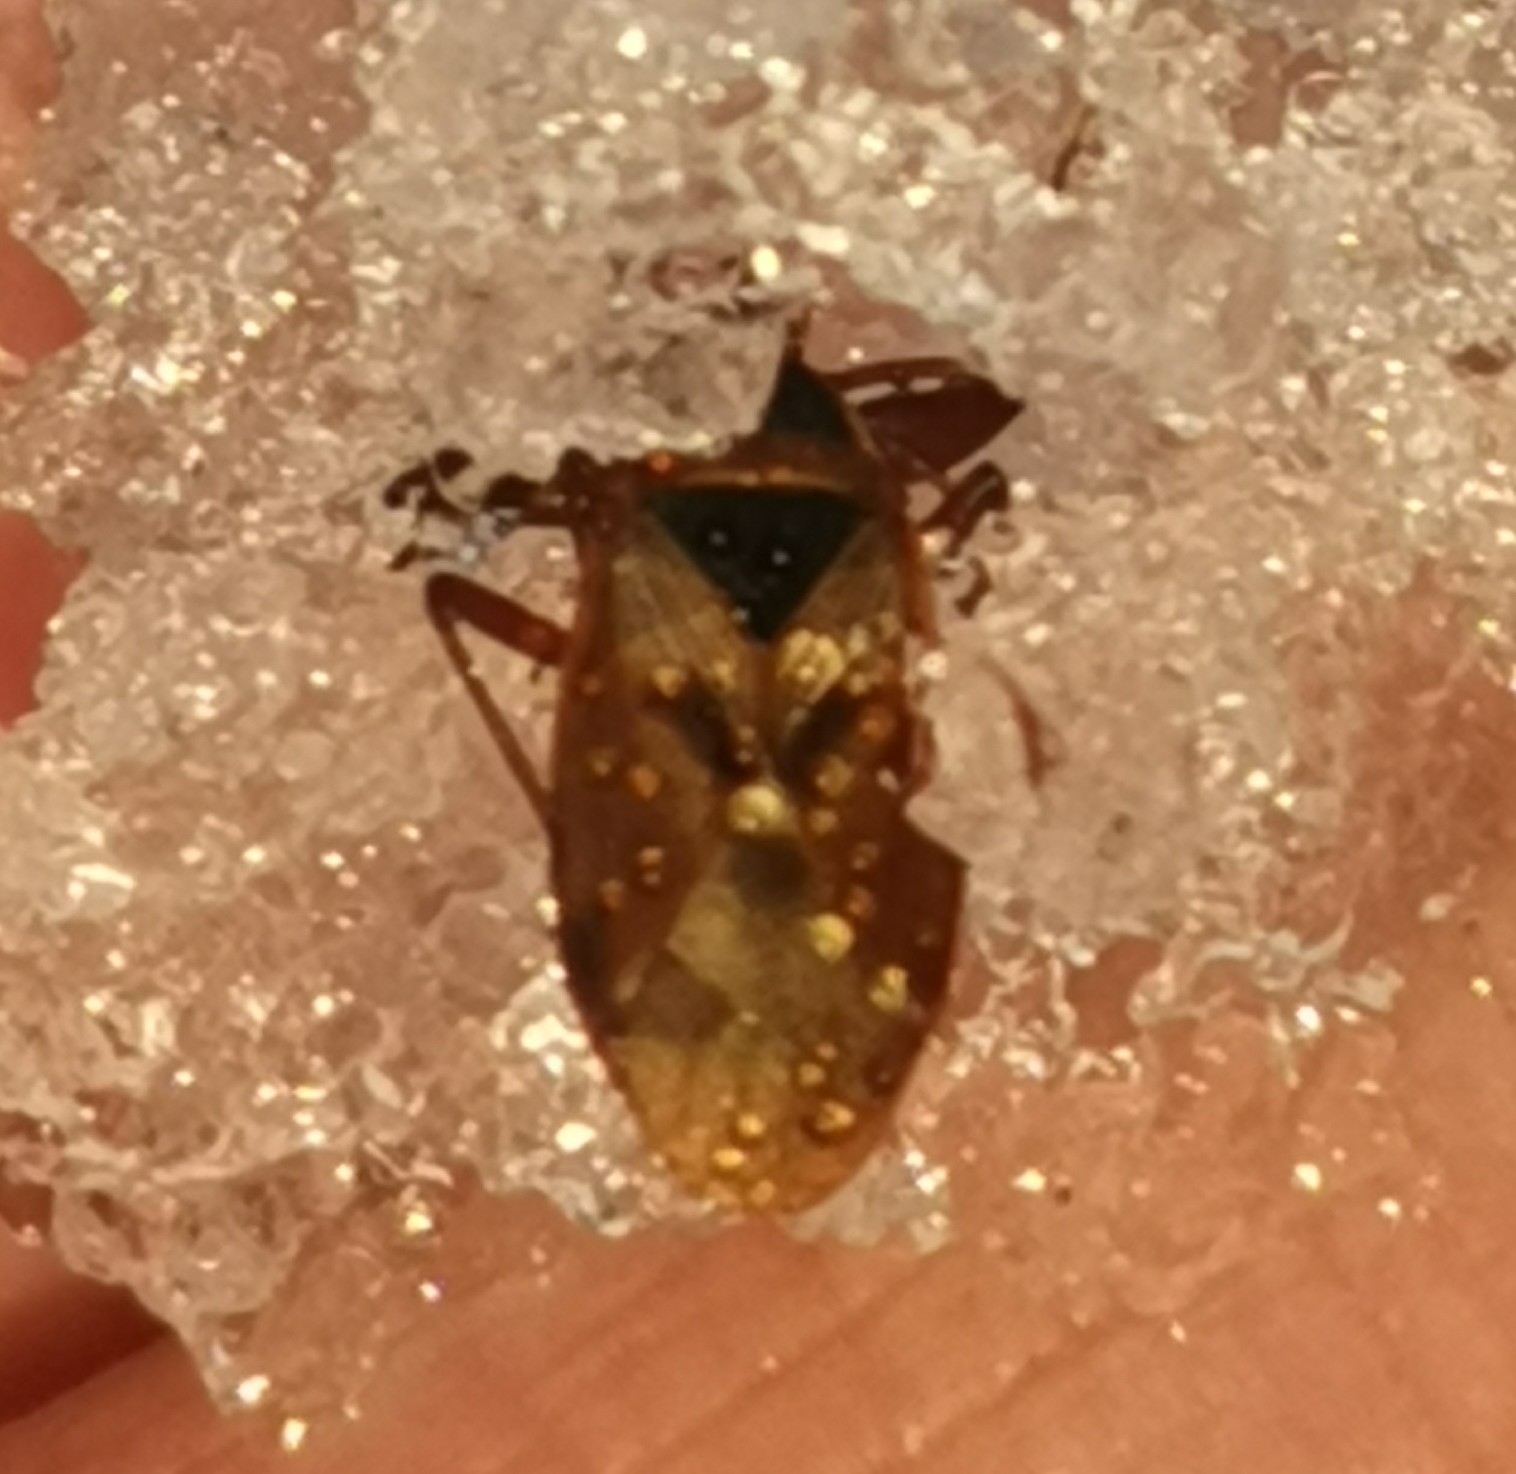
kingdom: Animalia
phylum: Arthropoda
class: Insecta
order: Hemiptera
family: Rhyparochromidae
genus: Gastrodes
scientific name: Gastrodes abietum
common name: Spruce cone bug
